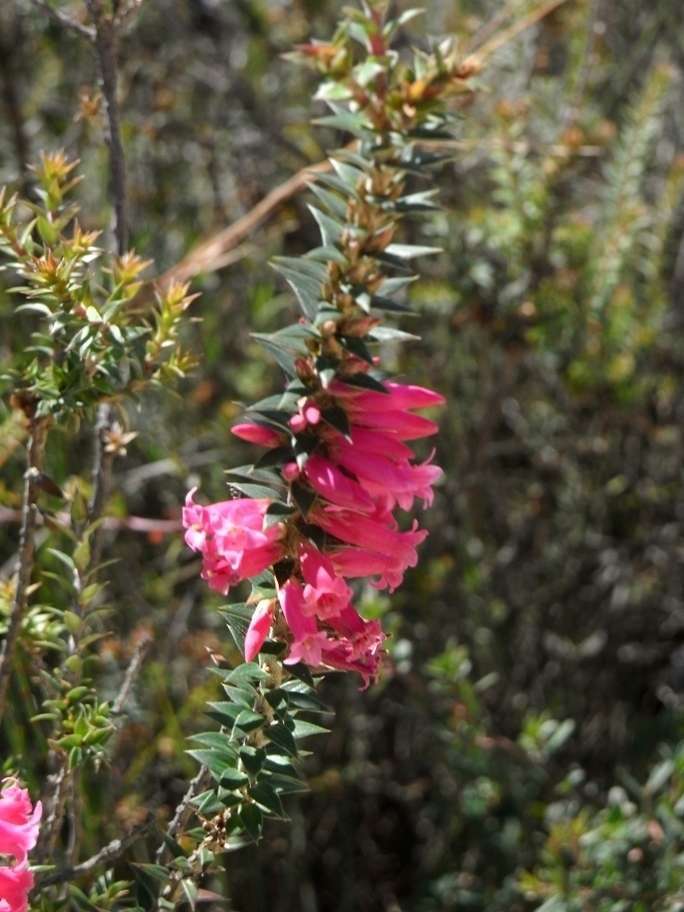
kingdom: Plantae
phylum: Tracheophyta
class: Magnoliopsida
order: Ericales
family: Ericaceae
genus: Epacris
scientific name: Epacris impressa
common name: Common-heath
